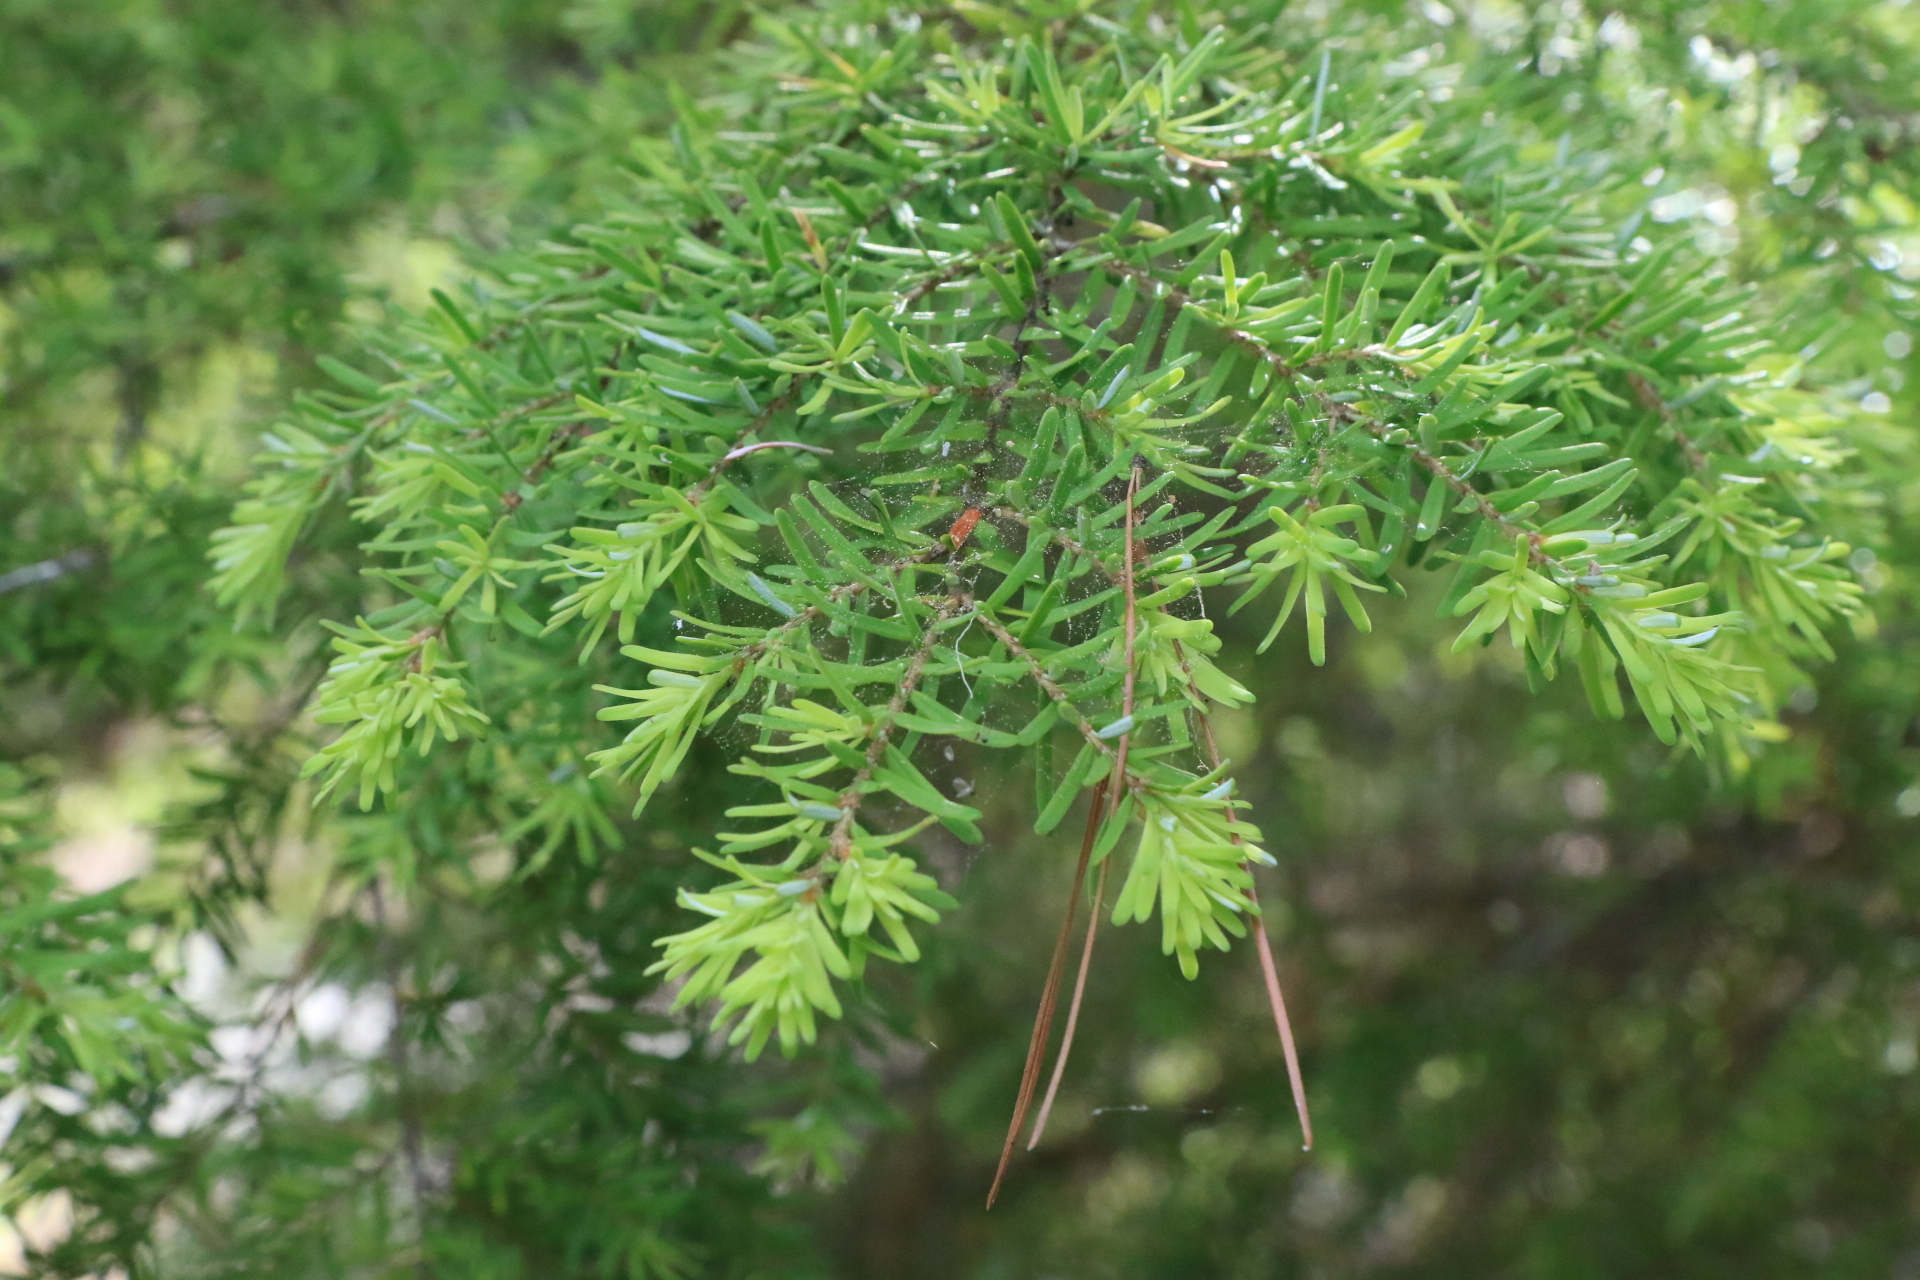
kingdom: Plantae
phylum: Tracheophyta
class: Pinopsida
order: Pinales
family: Pinaceae
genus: Tsuga
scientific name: Tsuga heterophylla
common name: Western hemlock
